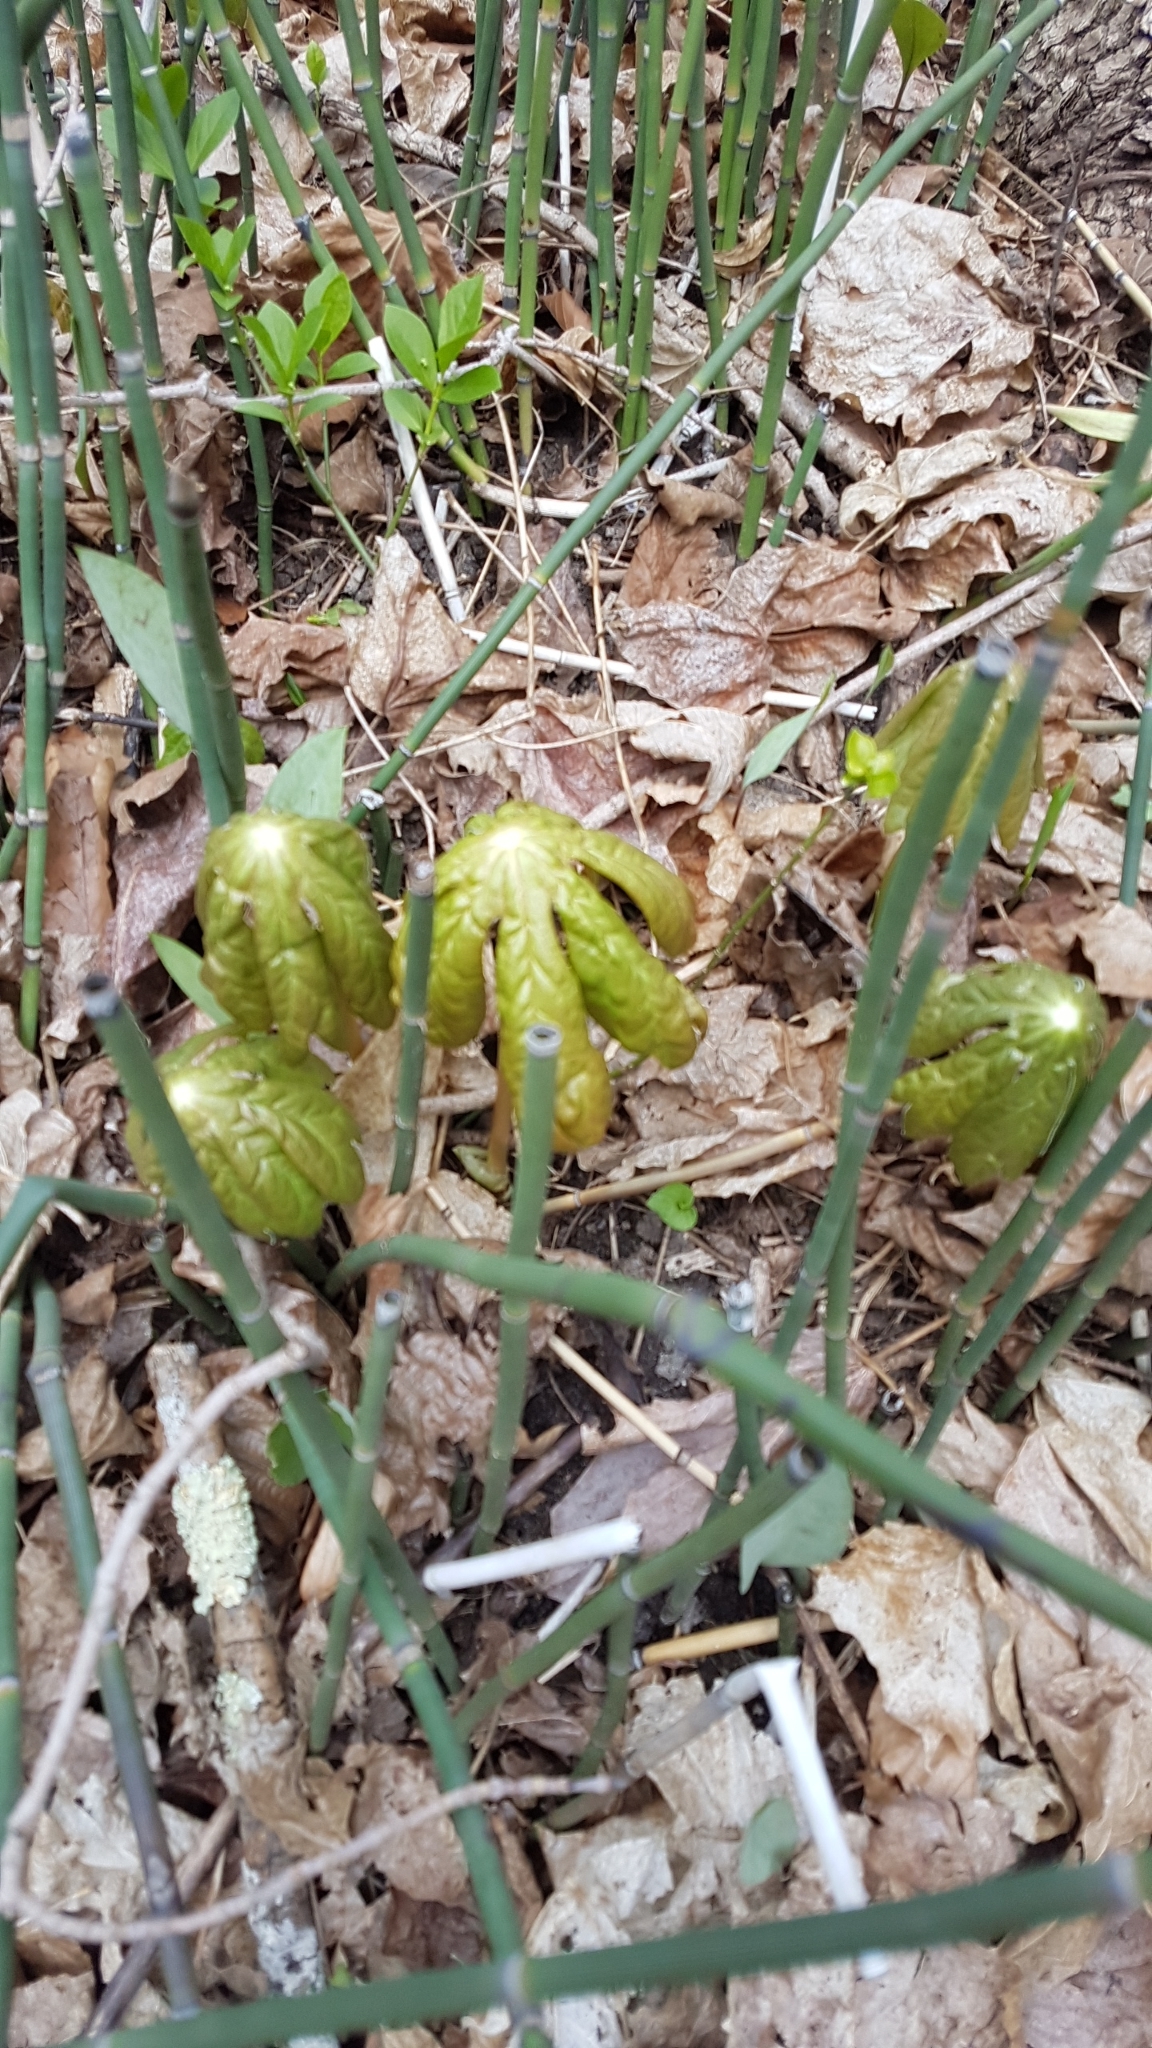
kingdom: Plantae
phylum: Tracheophyta
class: Magnoliopsida
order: Ranunculales
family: Berberidaceae
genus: Podophyllum
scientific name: Podophyllum peltatum
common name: Wild mandrake
